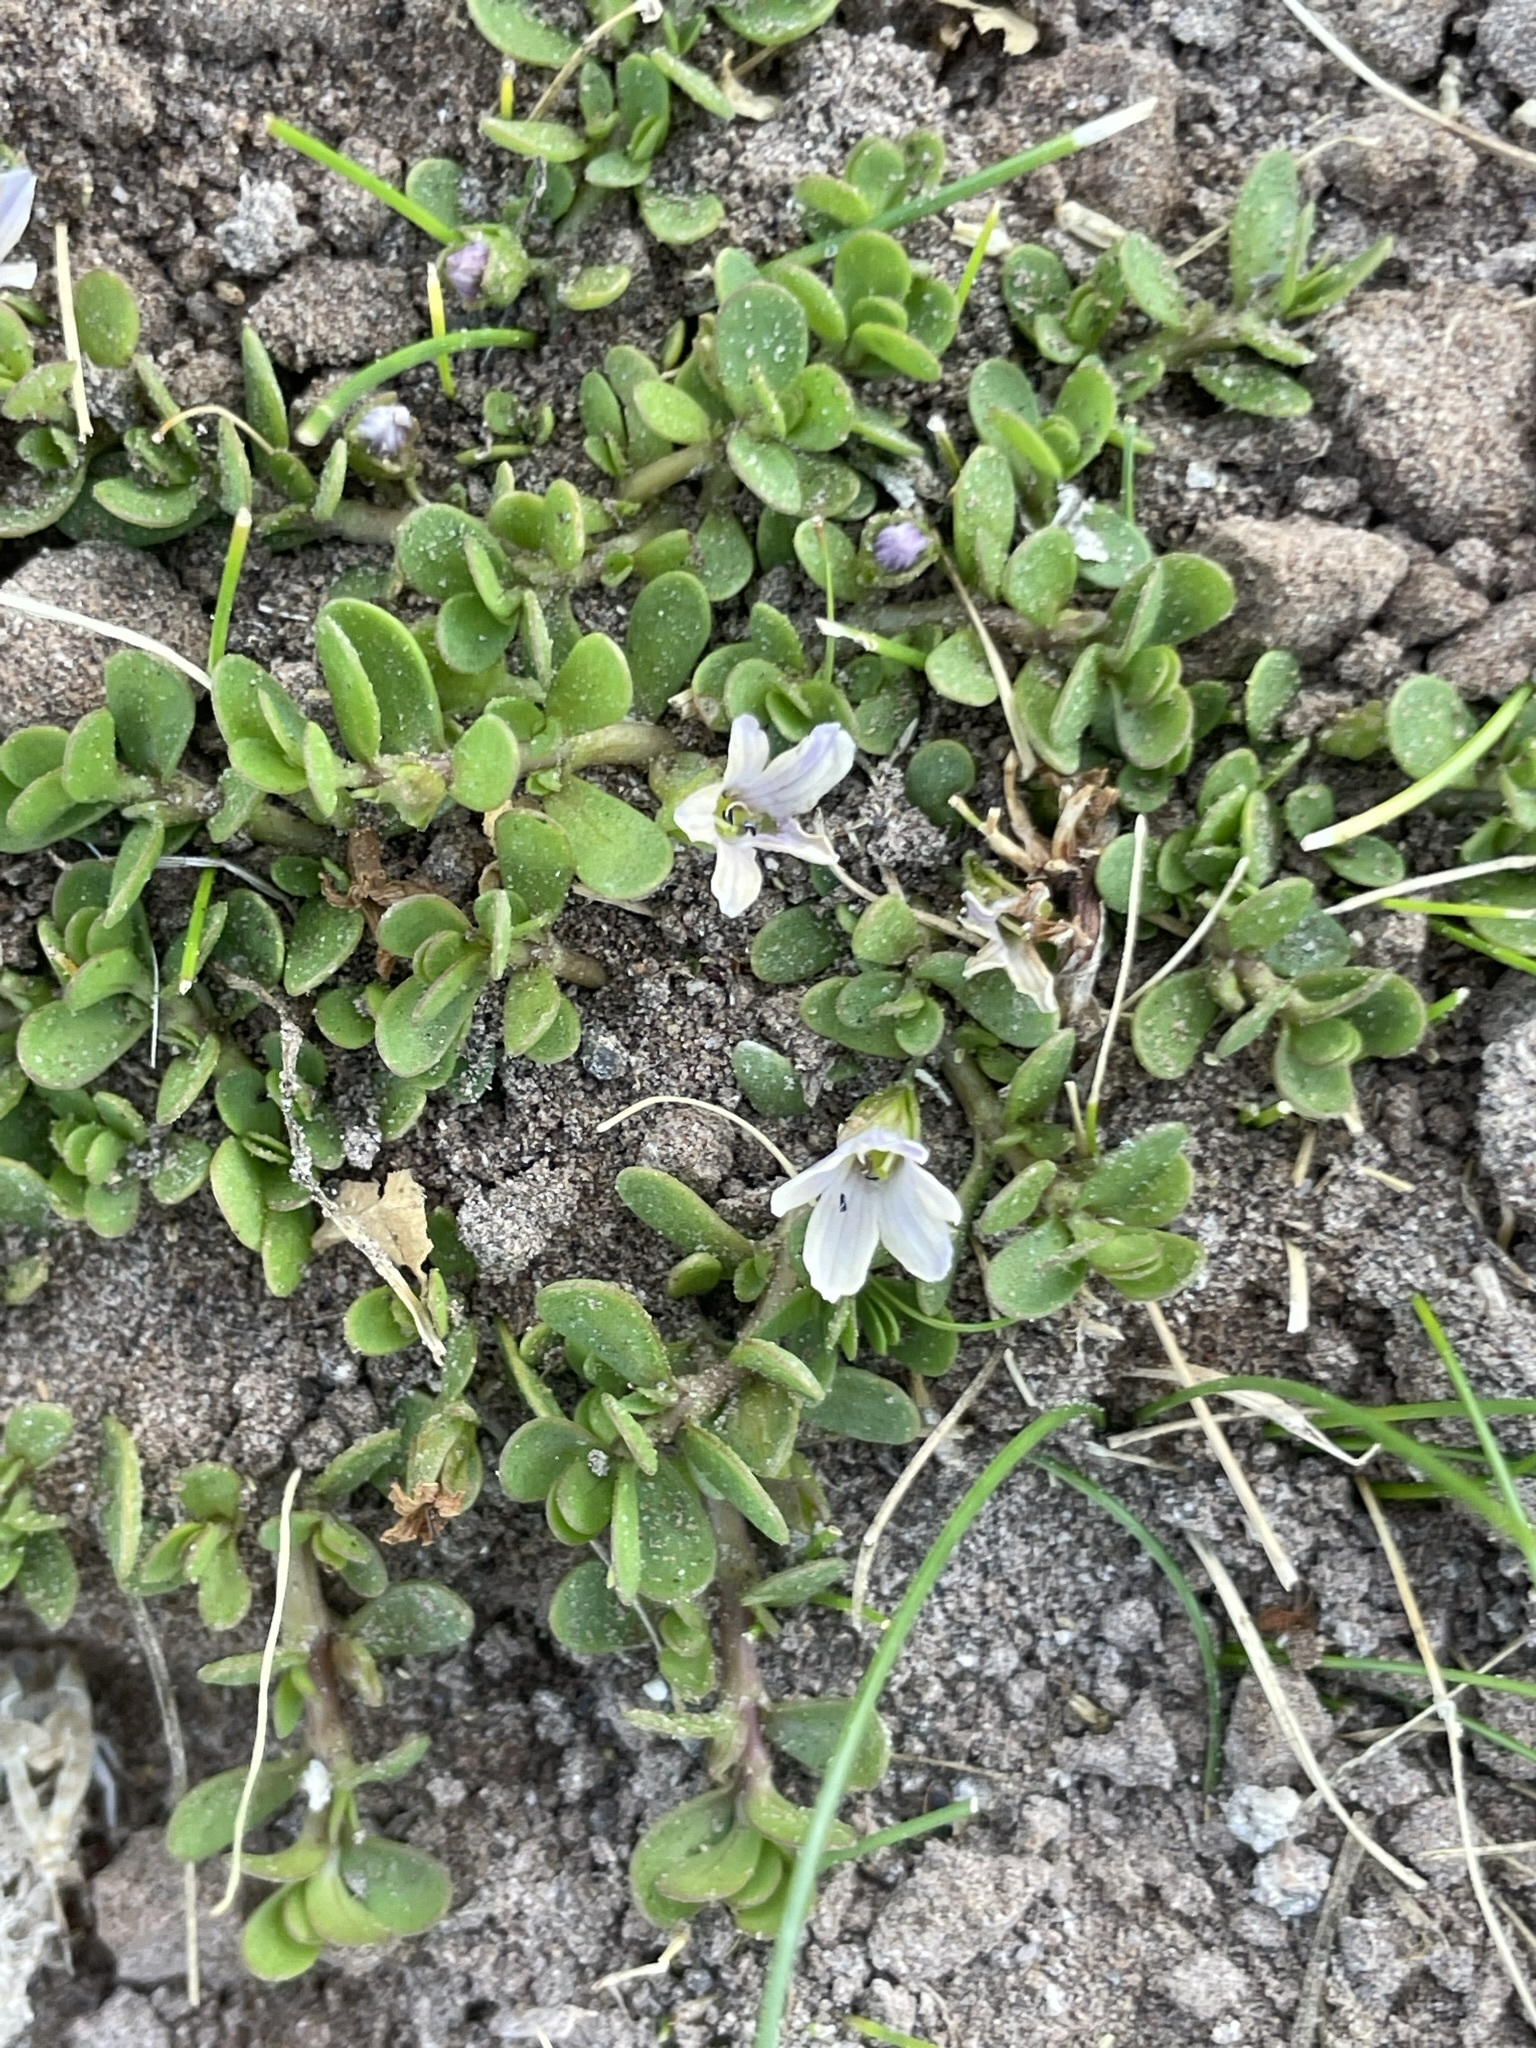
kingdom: Plantae
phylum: Tracheophyta
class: Magnoliopsida
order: Lamiales
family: Plantaginaceae
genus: Bacopa
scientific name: Bacopa monnieri
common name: Indian-pennywort
